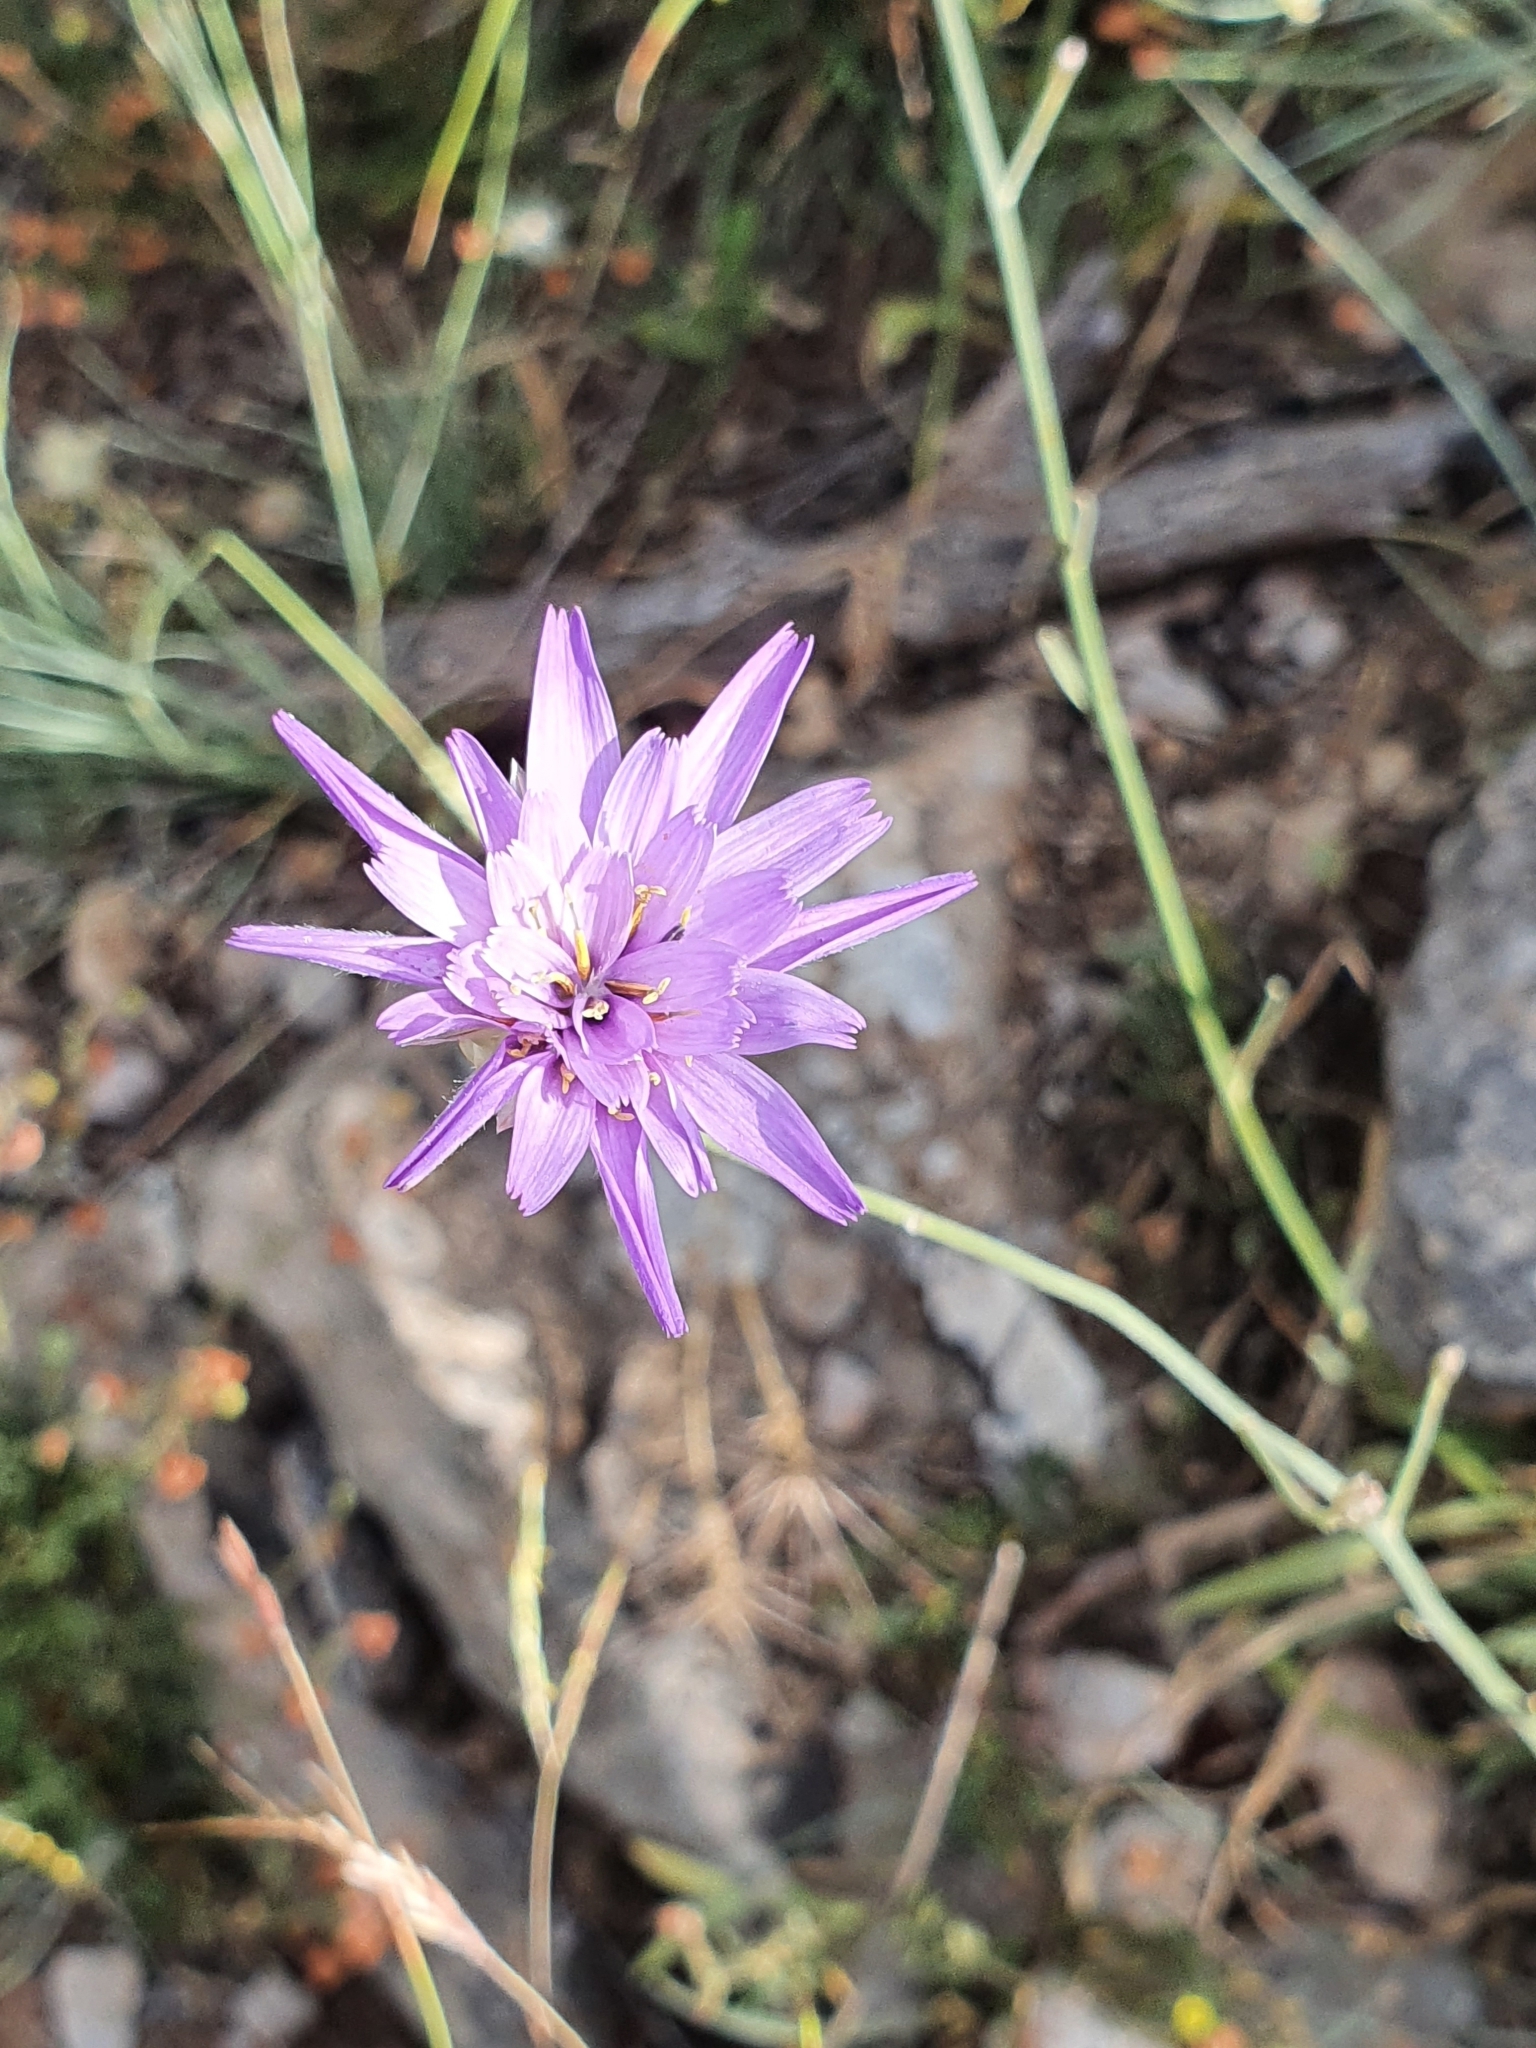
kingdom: Plantae
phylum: Tracheophyta
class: Magnoliopsida
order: Asterales
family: Asteraceae
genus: Catananche
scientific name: Catananche caerulea
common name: Blue cupidone
